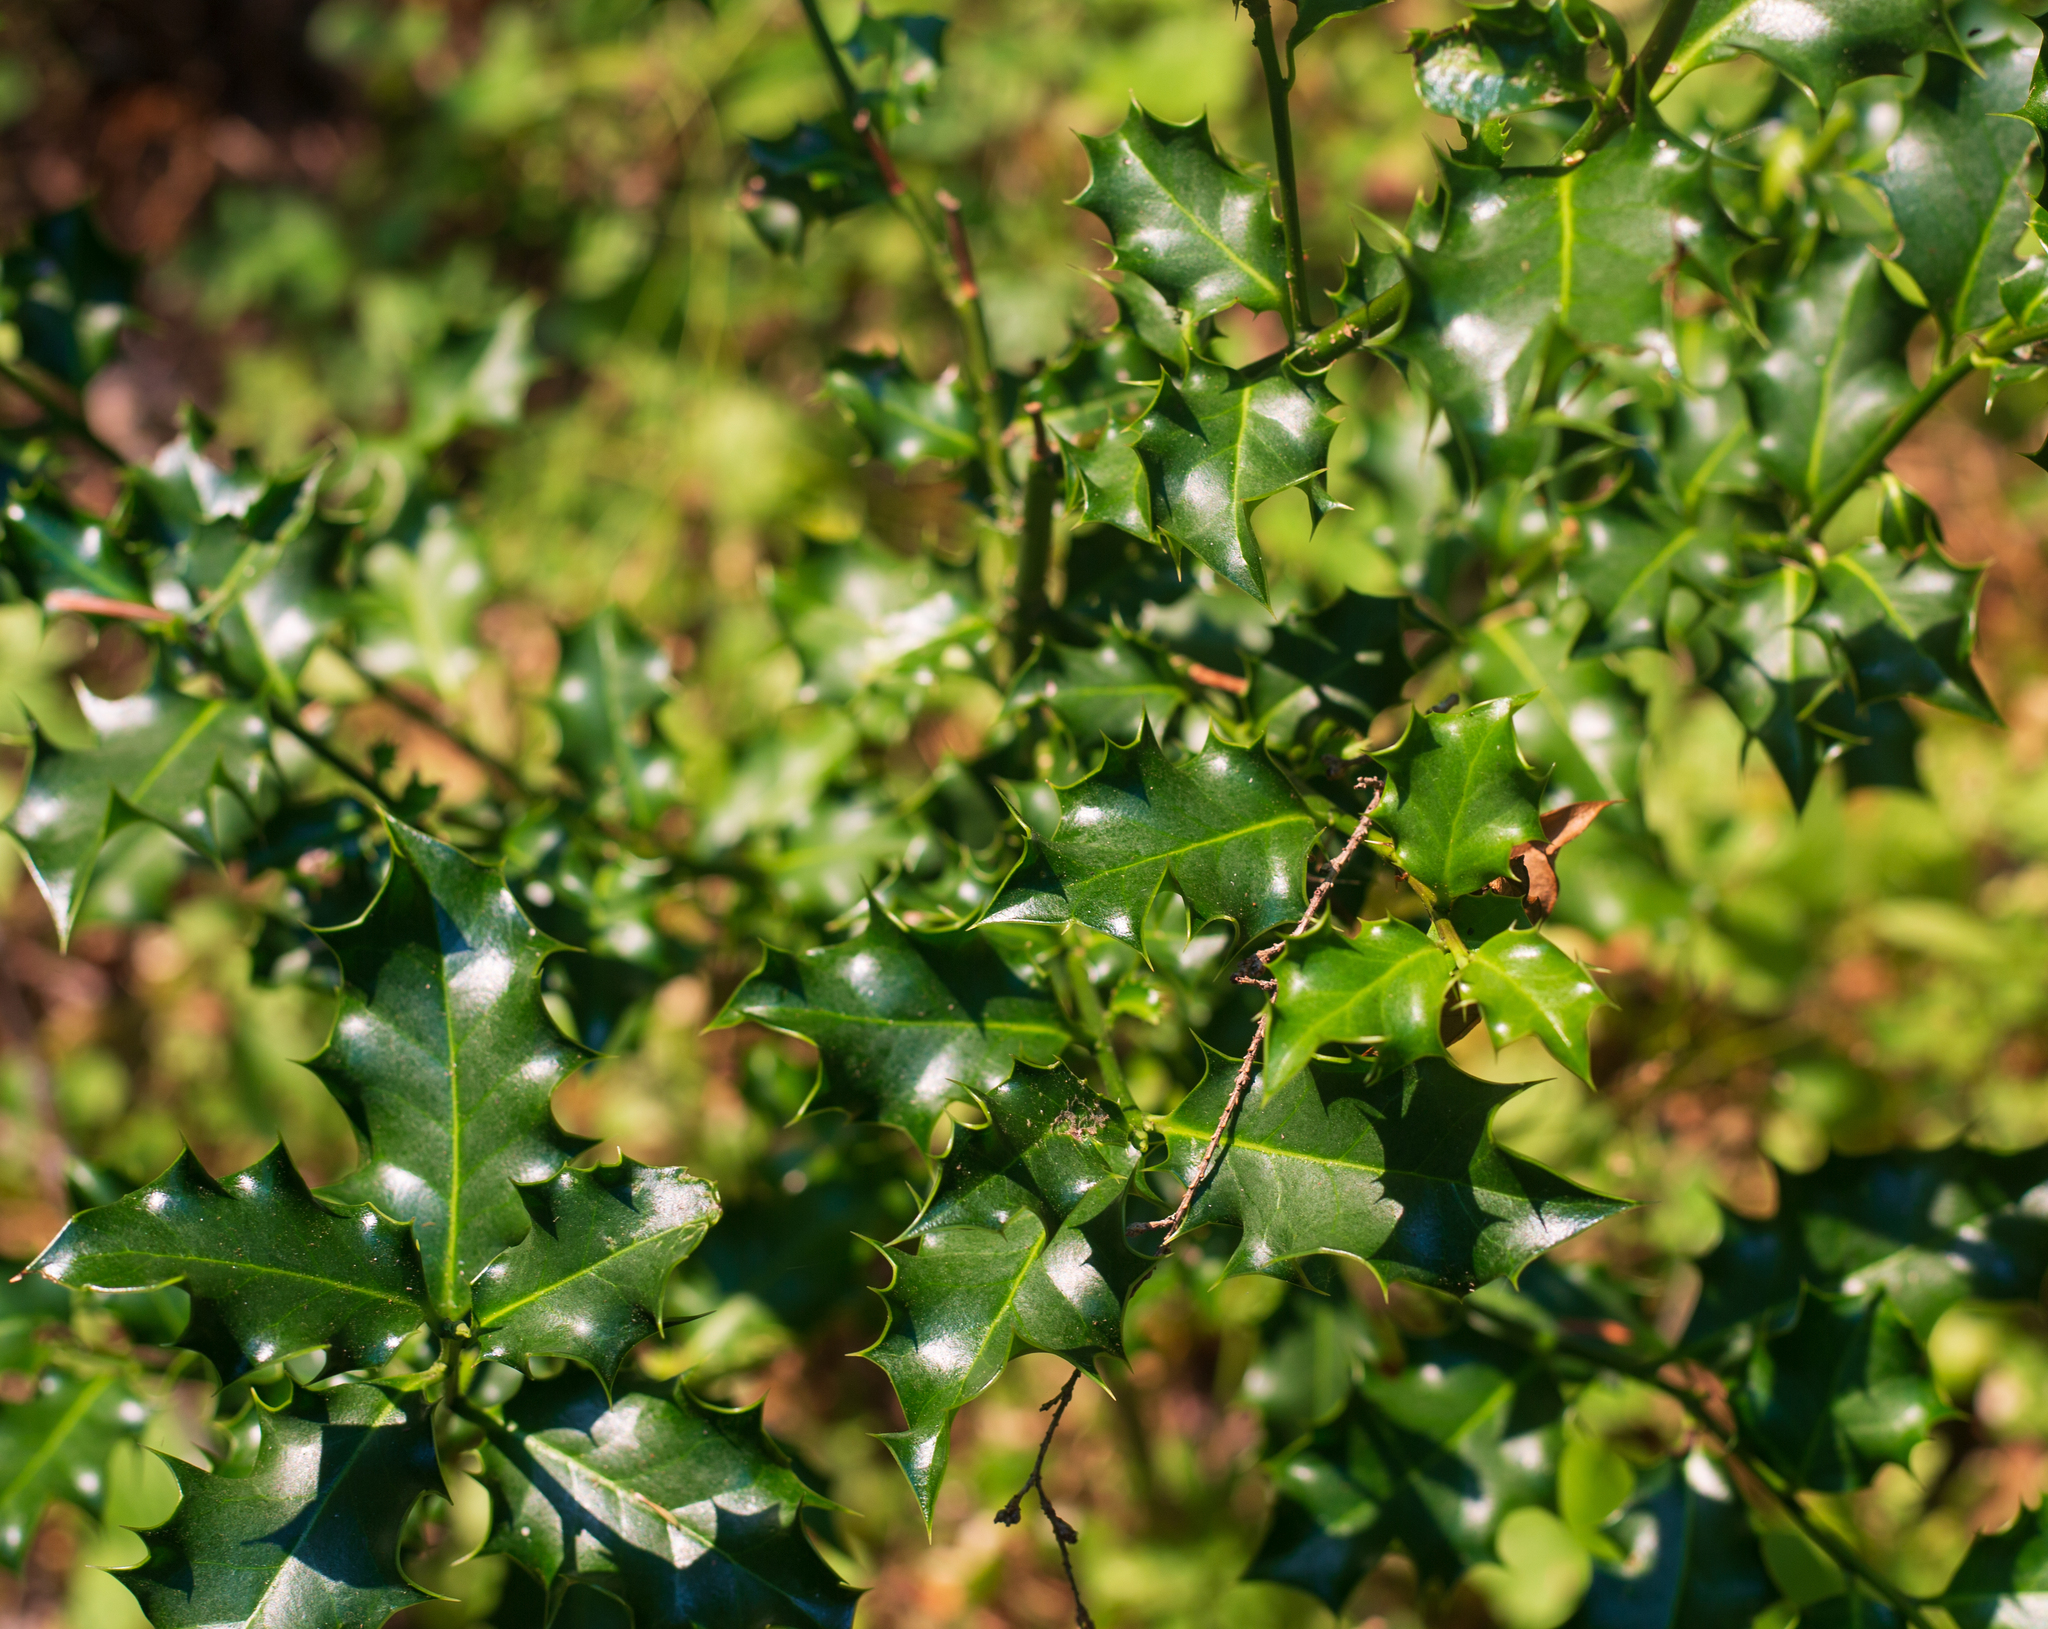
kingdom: Plantae
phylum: Tracheophyta
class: Magnoliopsida
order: Aquifoliales
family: Aquifoliaceae
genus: Ilex
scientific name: Ilex aquifolium
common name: English holly
